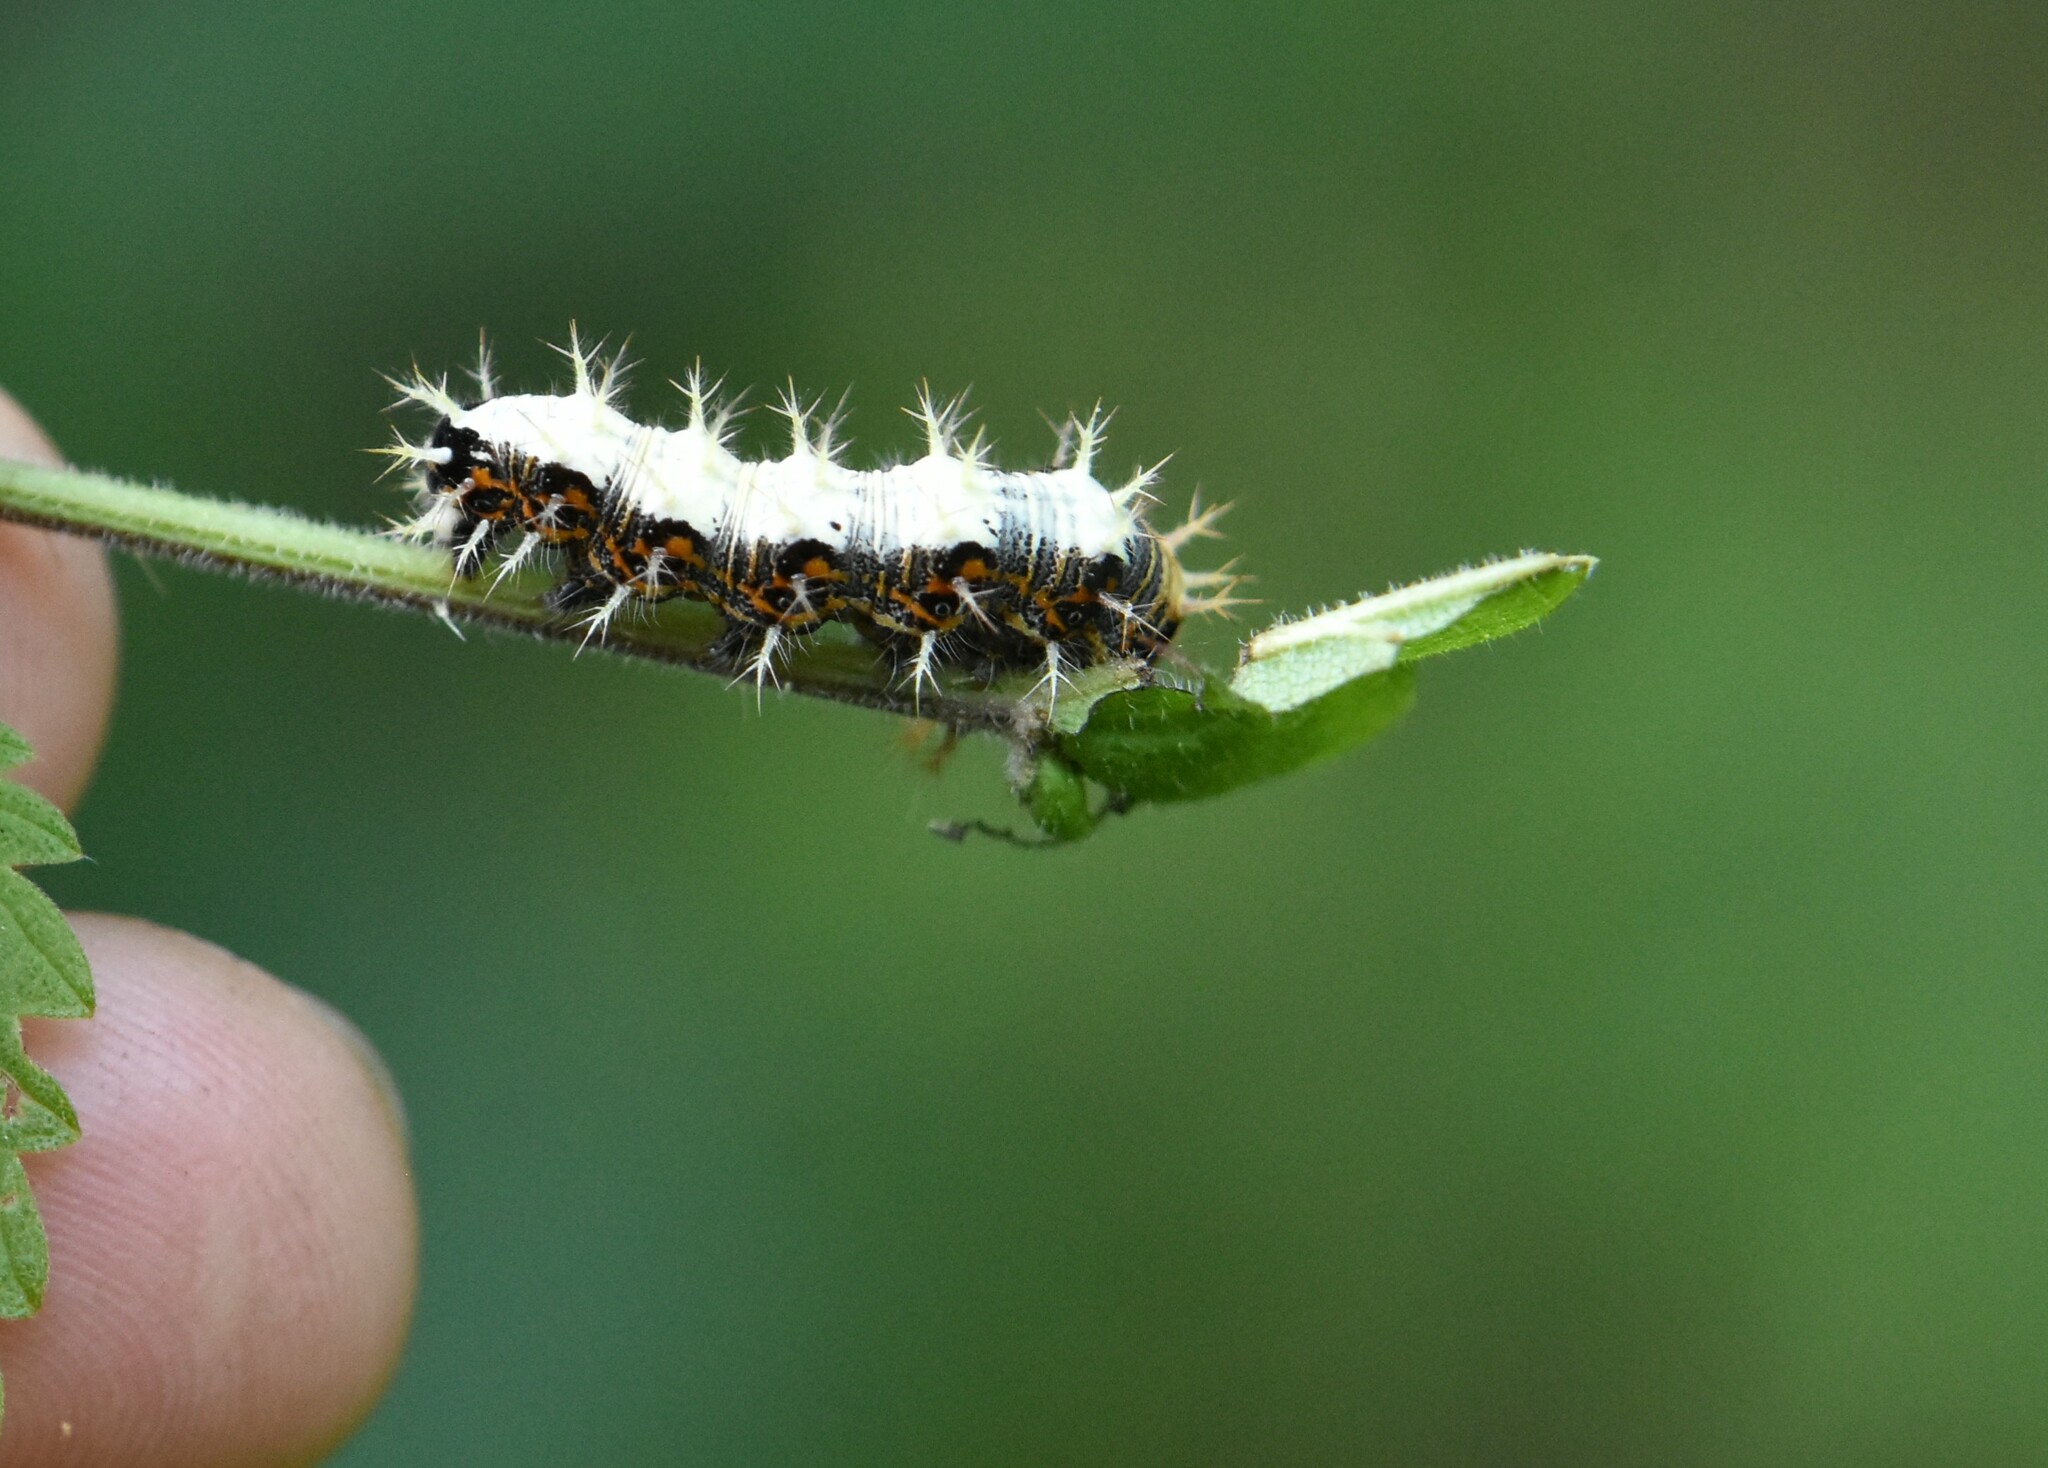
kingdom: Animalia
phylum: Arthropoda
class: Insecta
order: Lepidoptera
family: Nymphalidae
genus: Polygonia
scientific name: Polygonia c-album
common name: Comma
